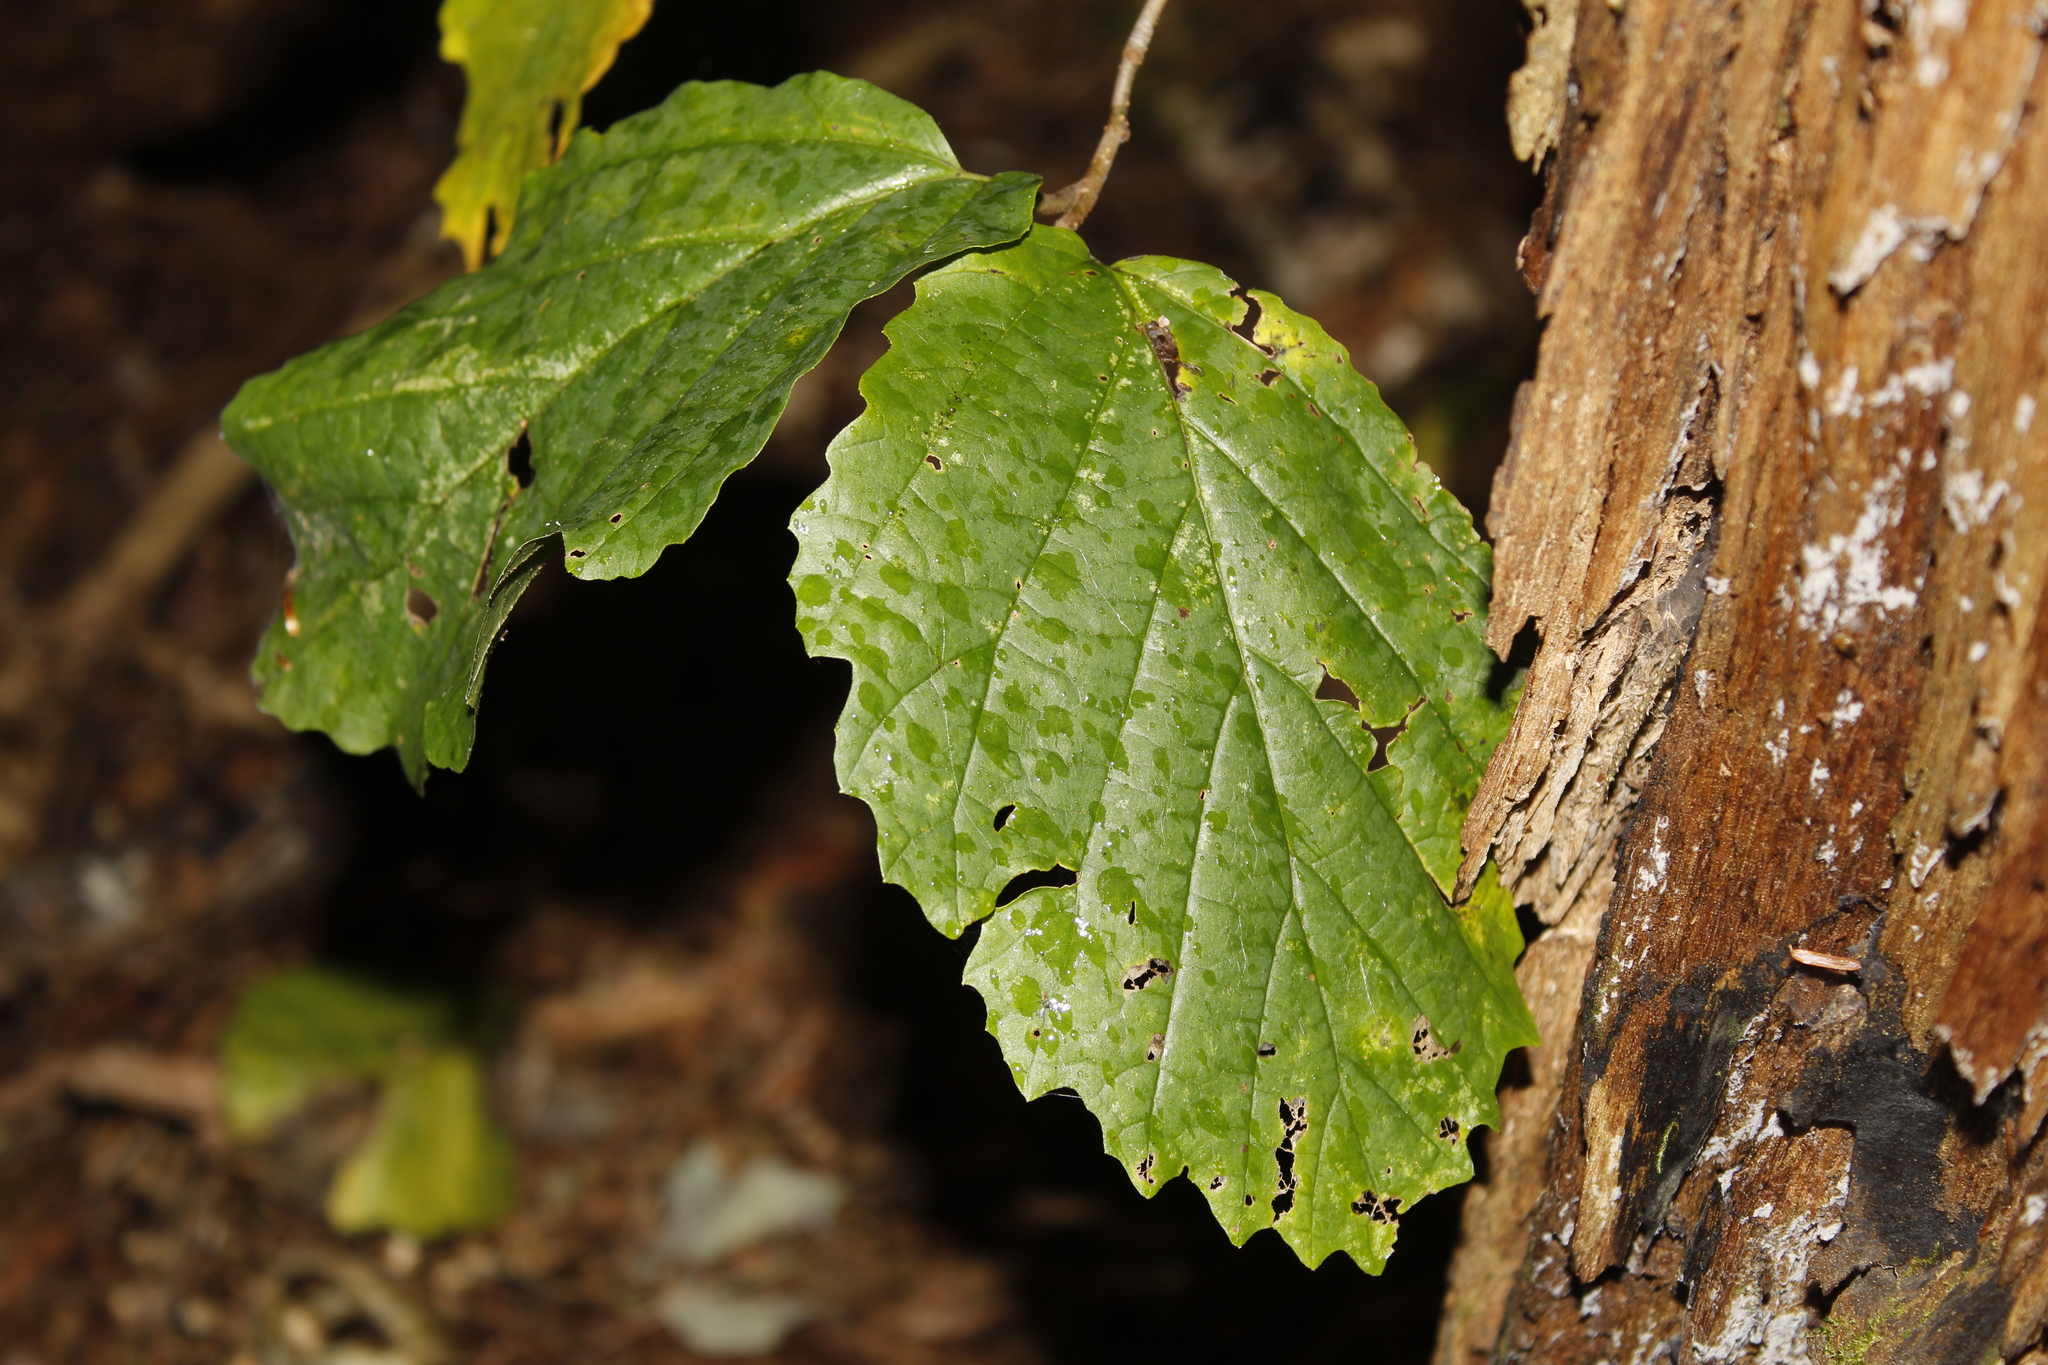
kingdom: Plantae
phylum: Tracheophyta
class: Magnoliopsida
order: Saxifragales
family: Hamamelidaceae
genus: Hamamelis
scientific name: Hamamelis virginiana
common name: Witch-hazel
